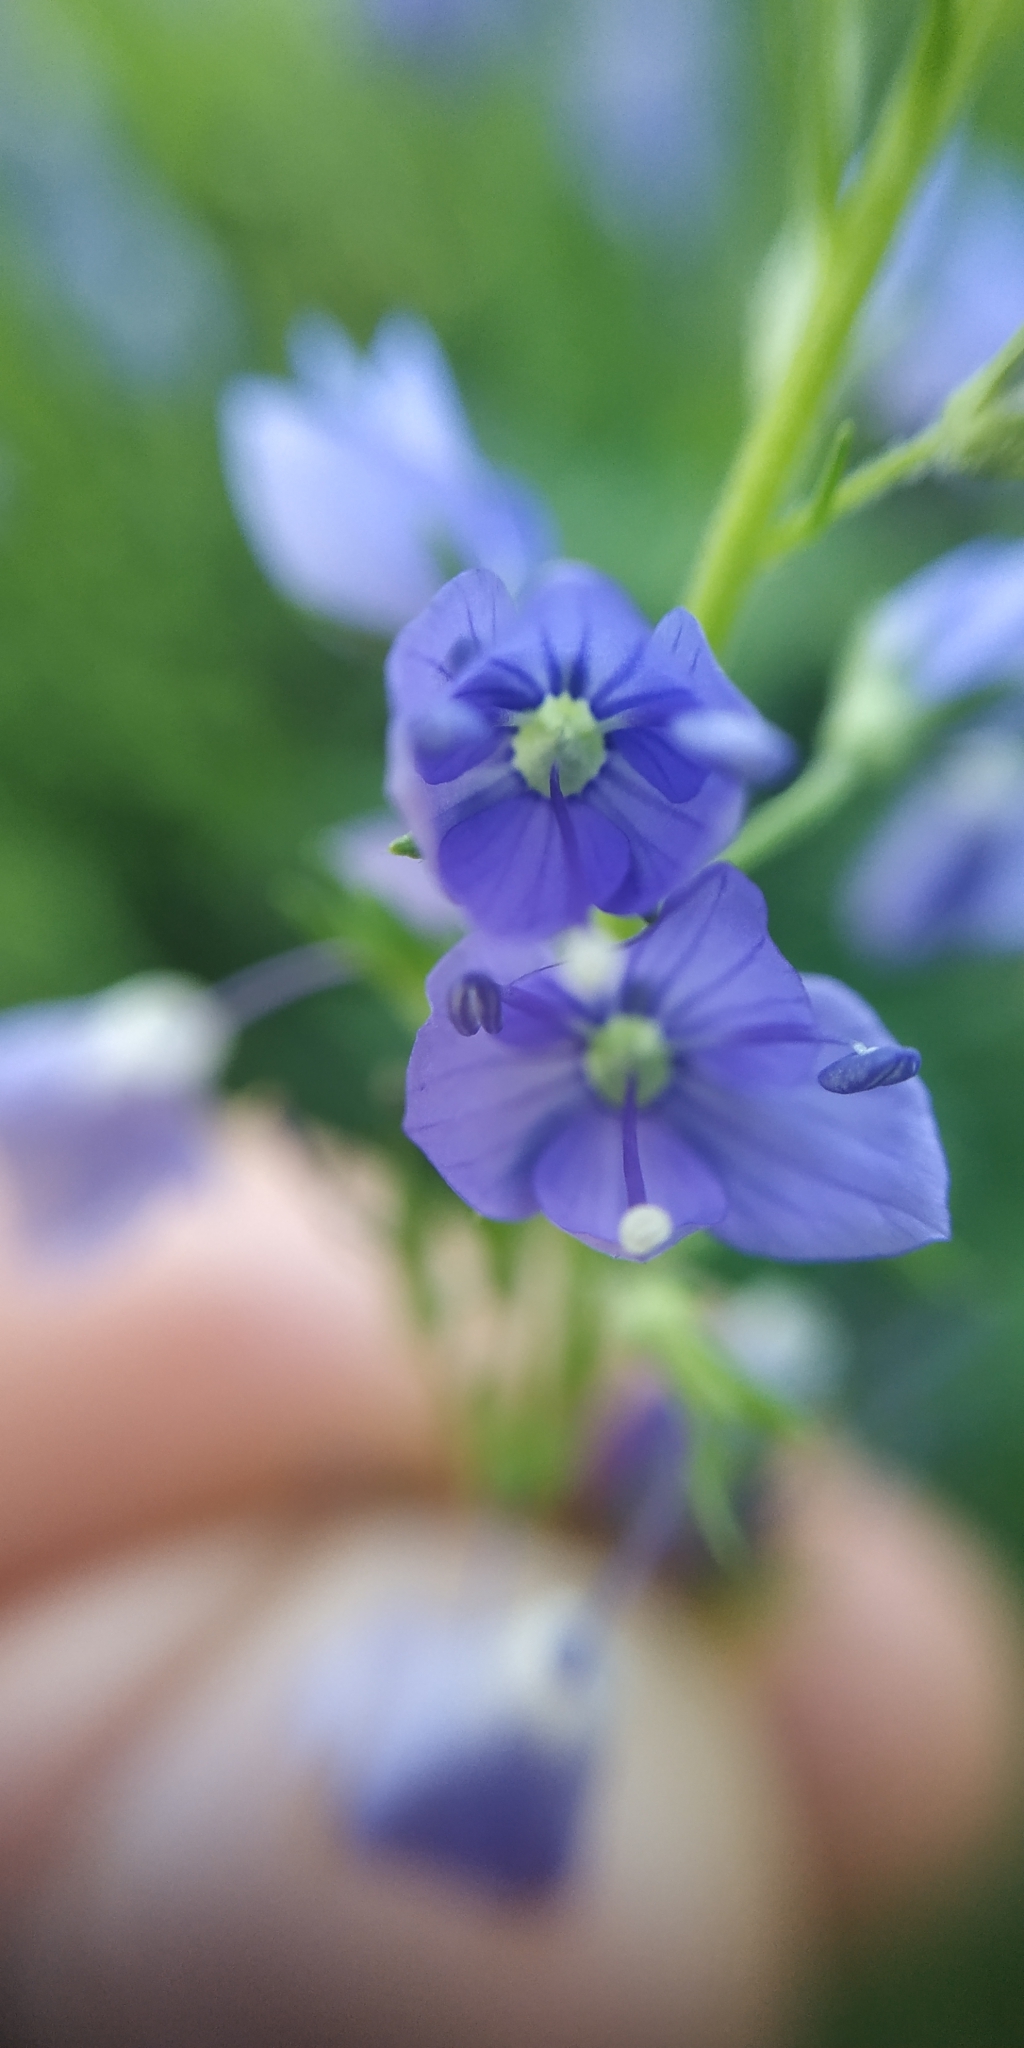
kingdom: Plantae
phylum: Tracheophyta
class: Magnoliopsida
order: Lamiales
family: Plantaginaceae
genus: Veronica
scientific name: Veronica teucrium
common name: Large speedwell
